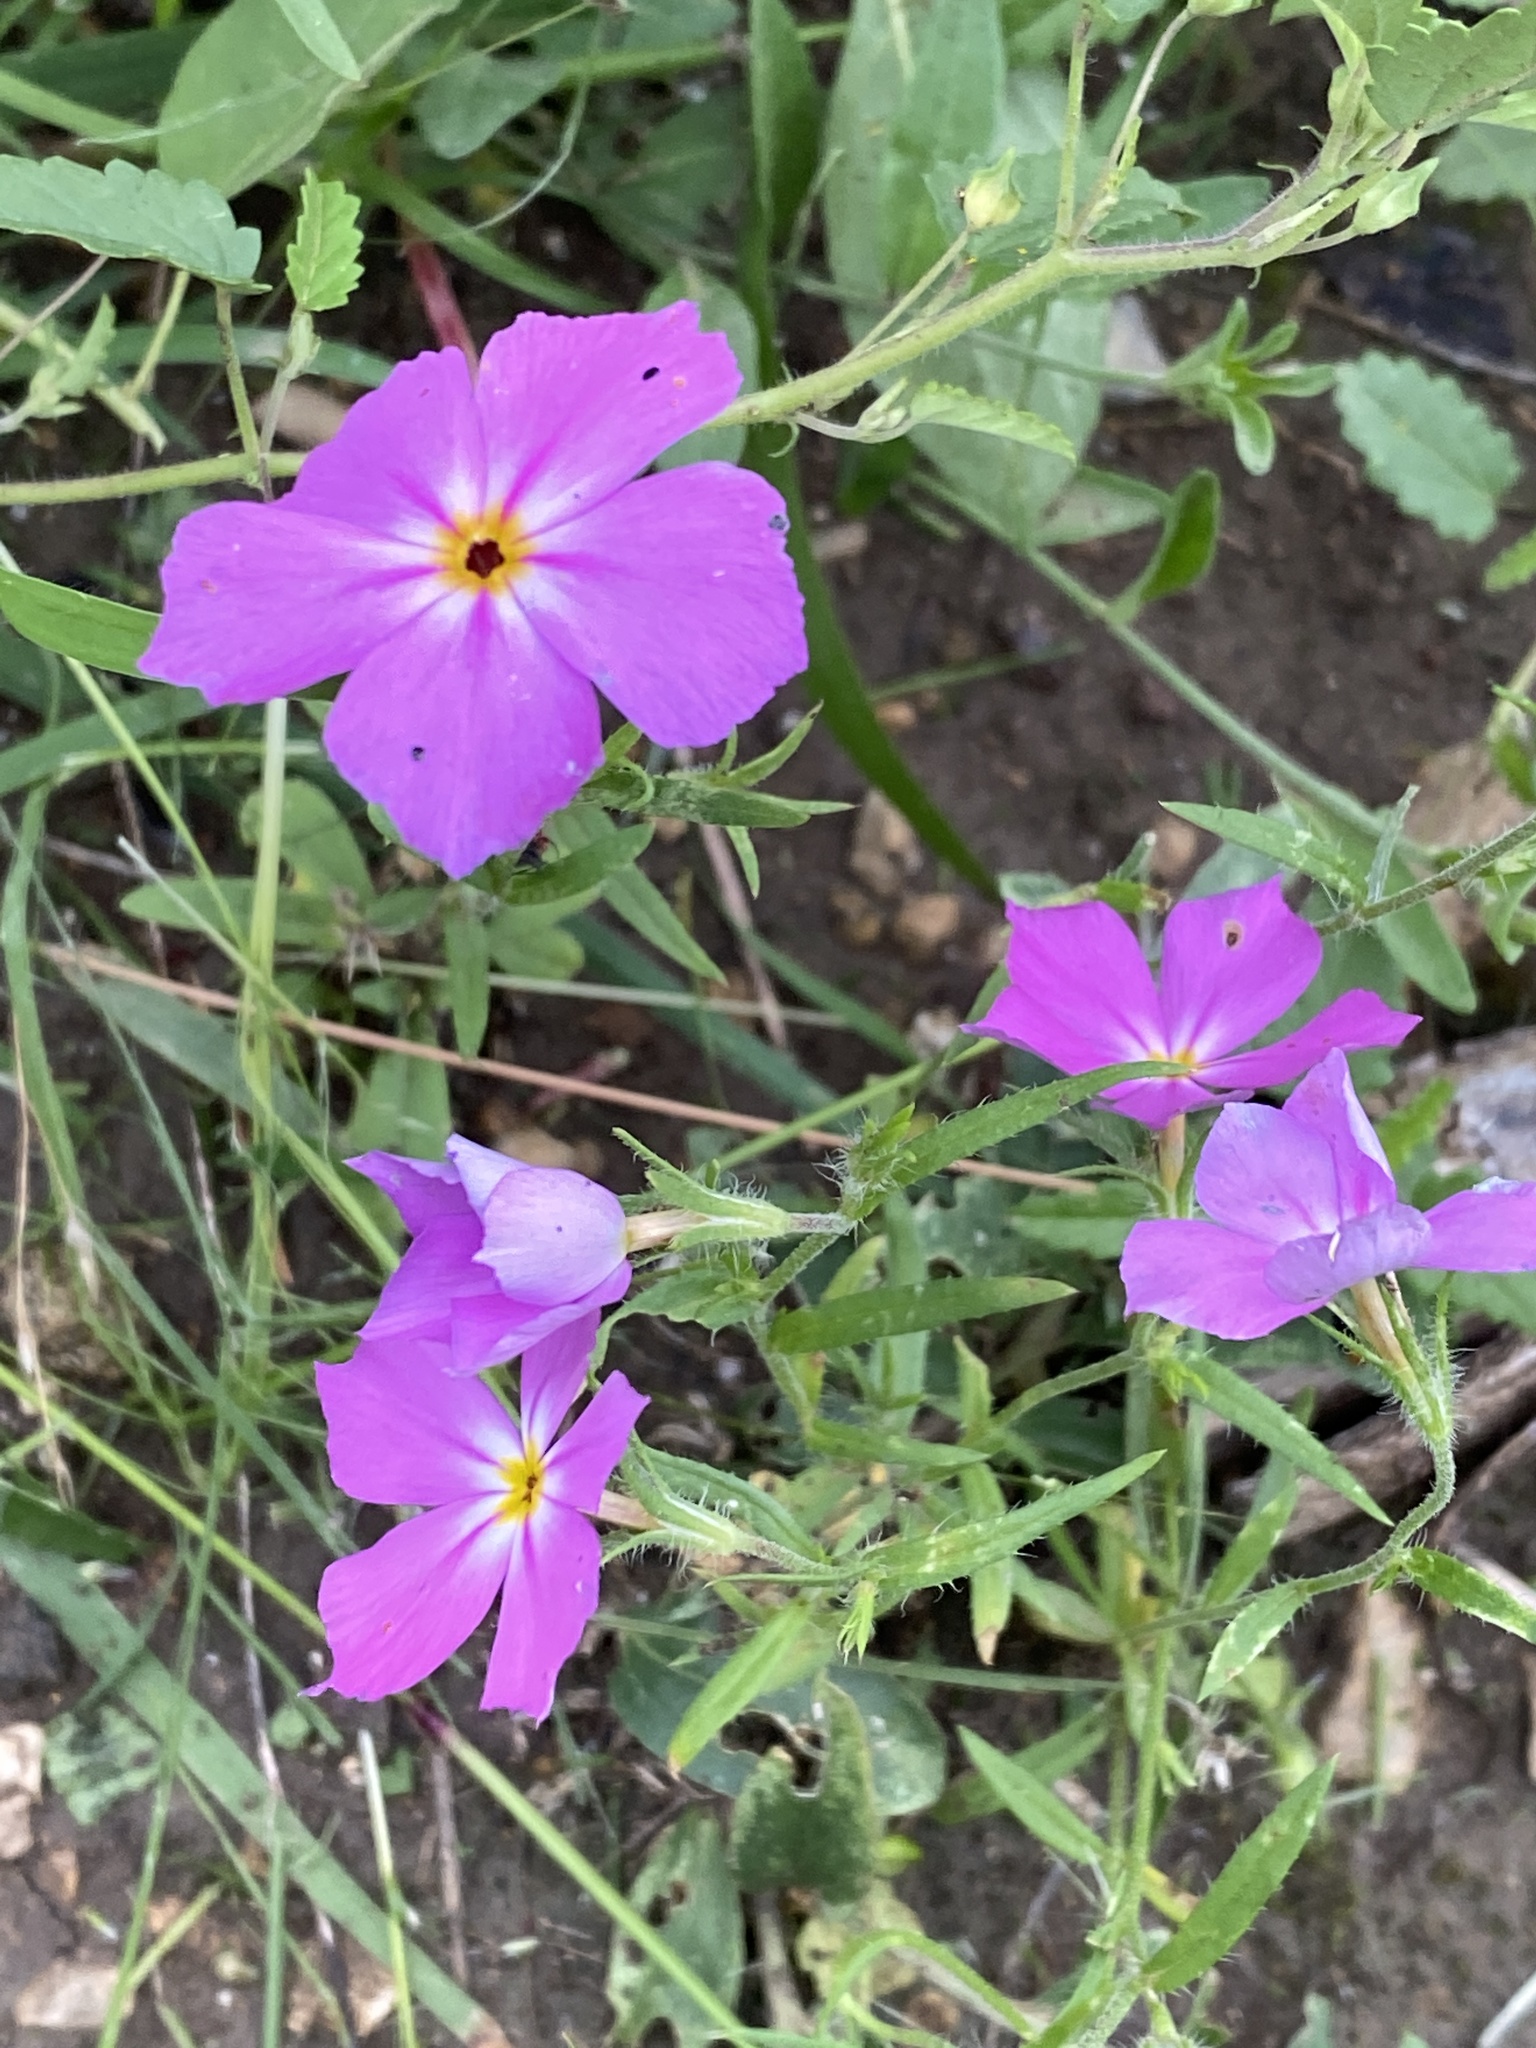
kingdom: Plantae
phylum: Tracheophyta
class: Magnoliopsida
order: Ericales
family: Polemoniaceae
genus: Phlox
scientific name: Phlox roemeriana
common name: Roemer's phlox
